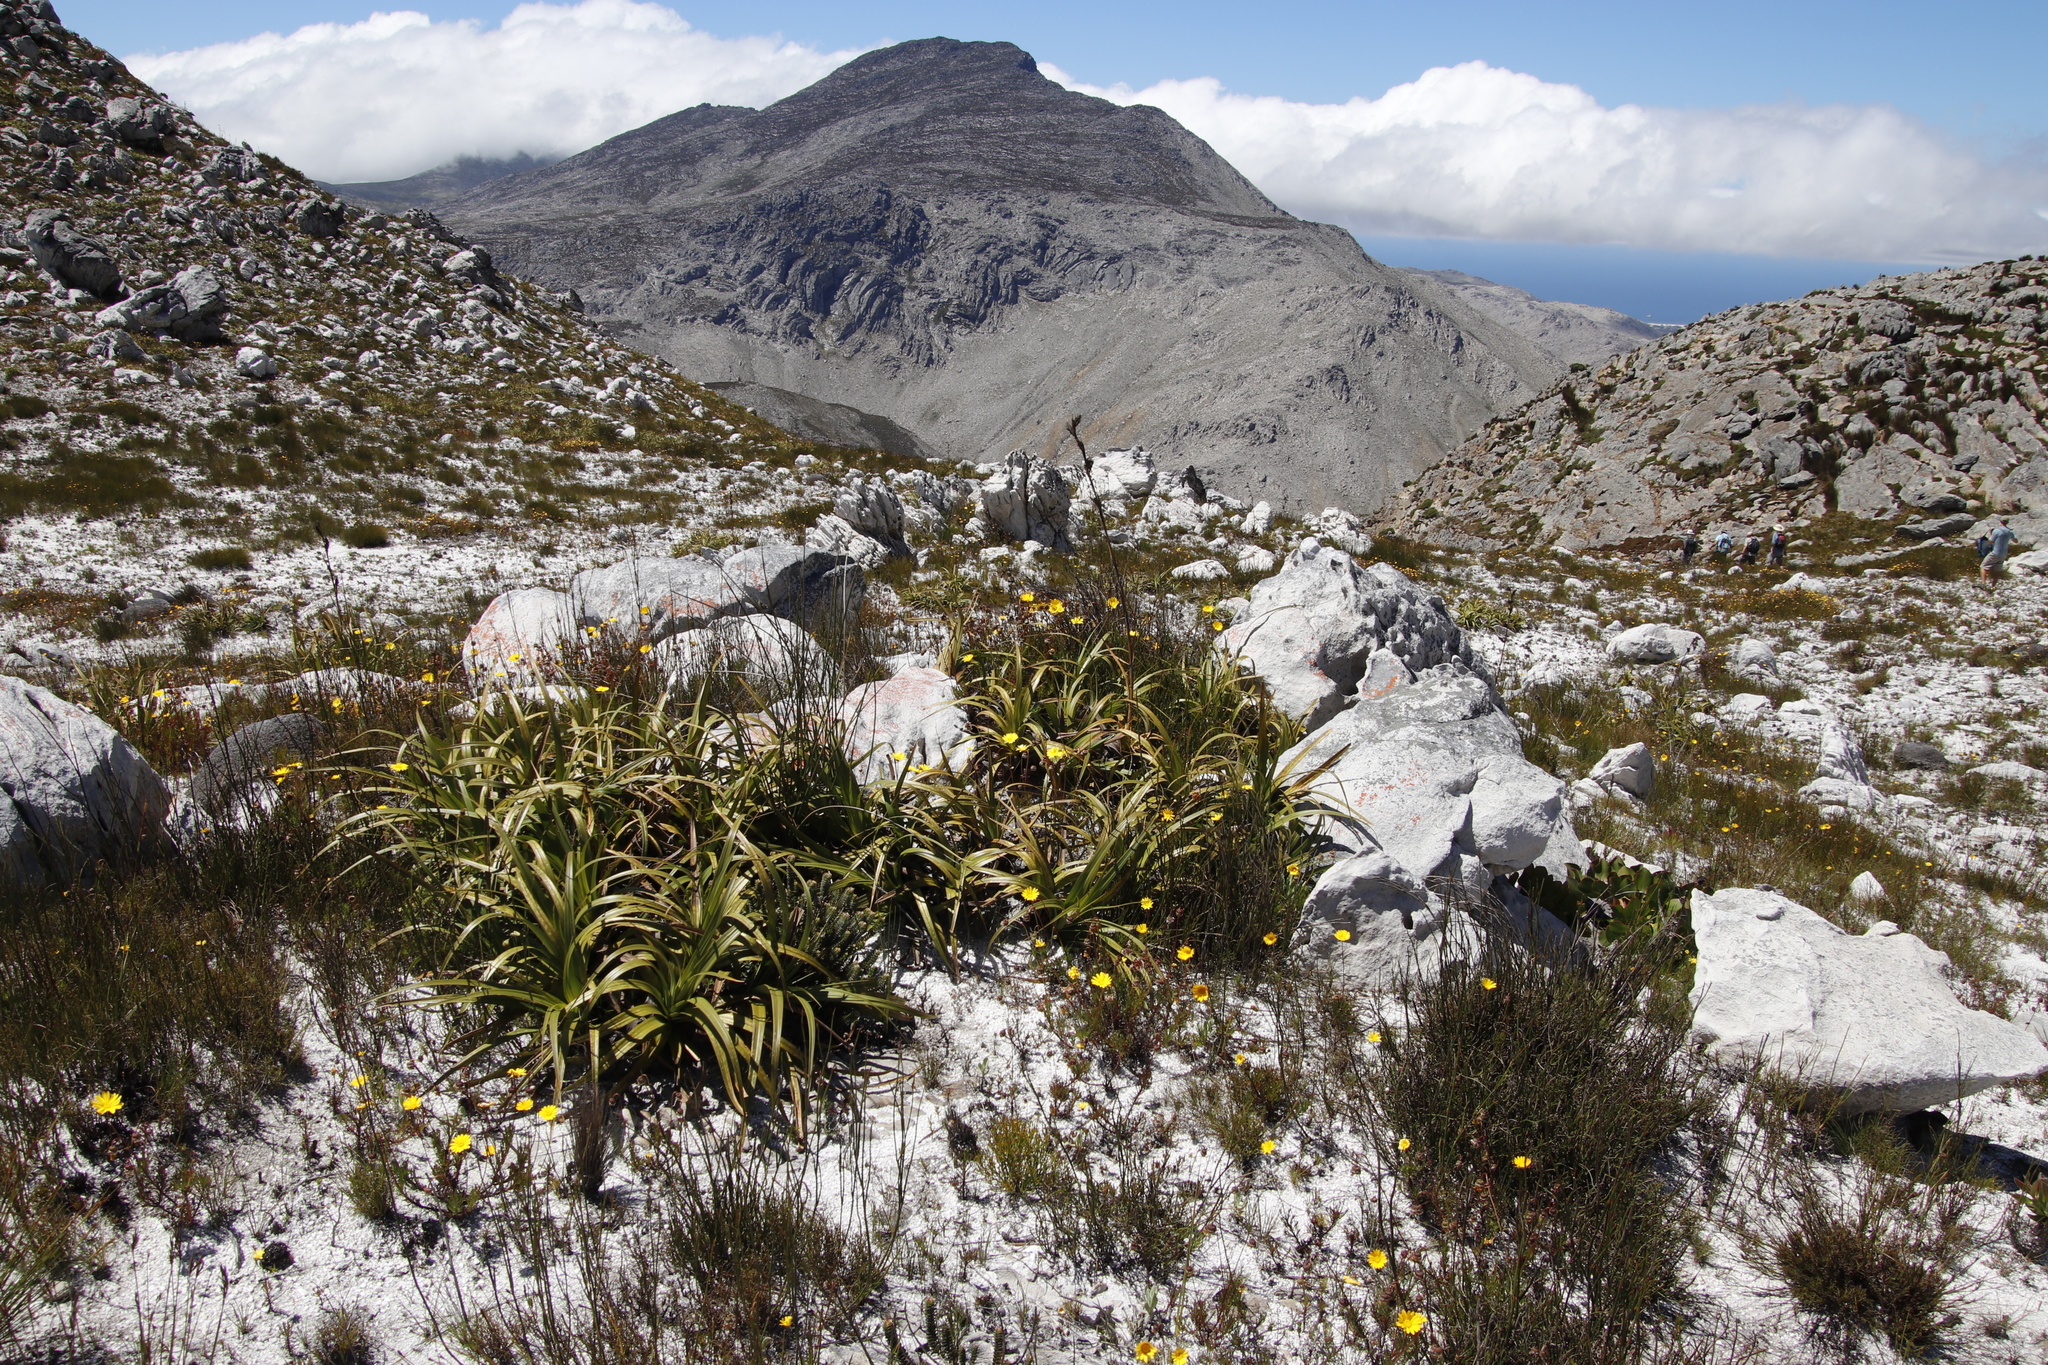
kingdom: Plantae
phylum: Tracheophyta
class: Liliopsida
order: Poales
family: Cyperaceae
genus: Tetraria
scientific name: Tetraria thermalis
